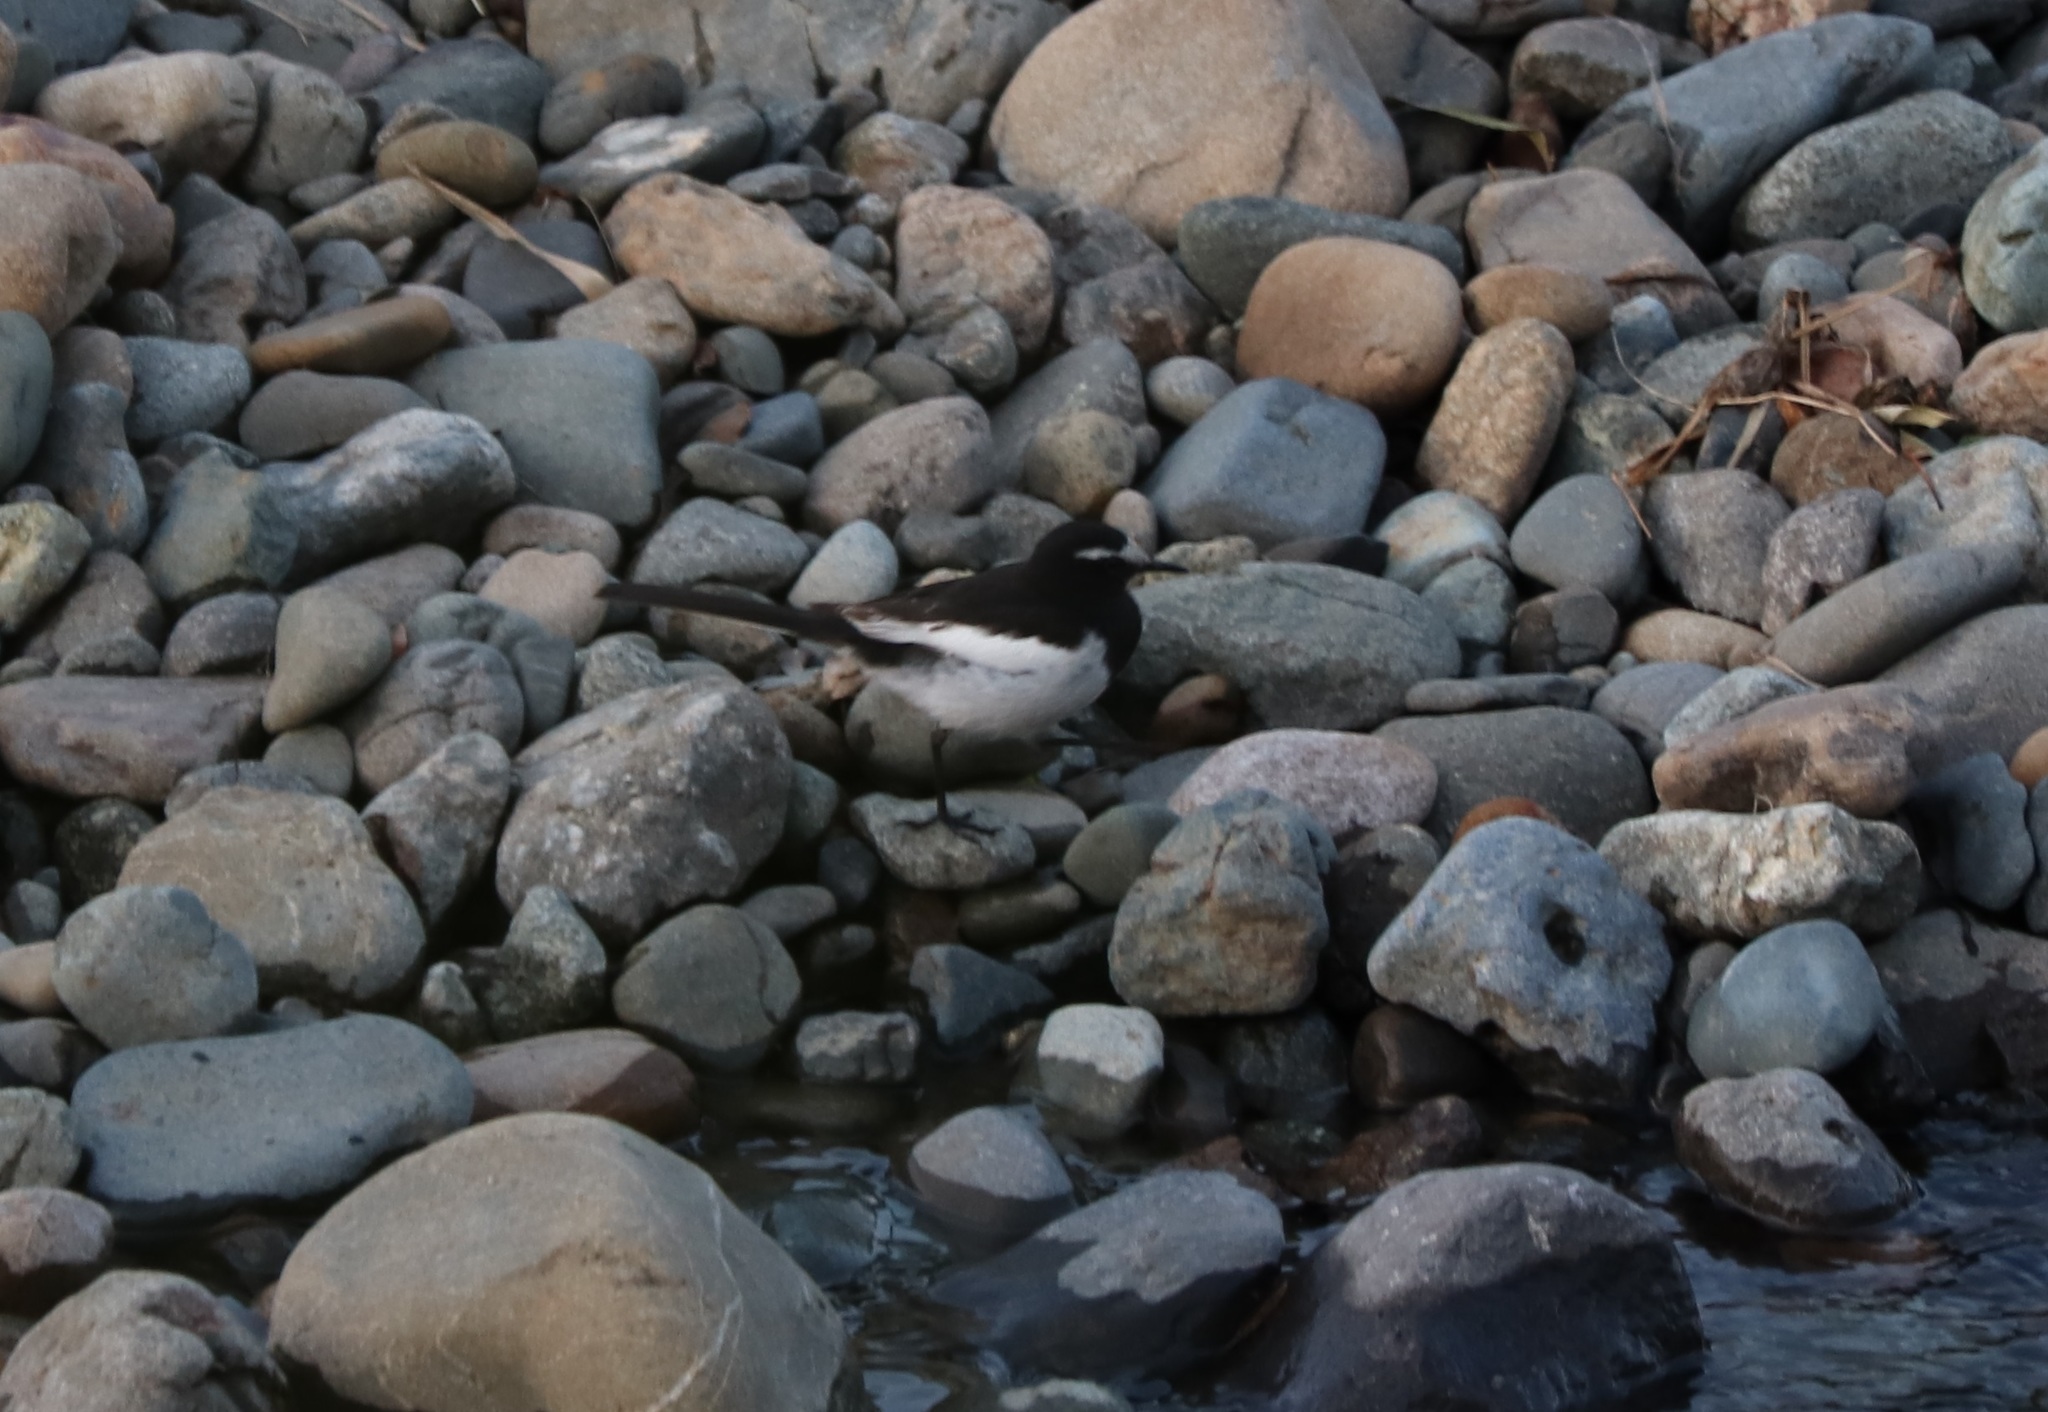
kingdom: Animalia
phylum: Chordata
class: Aves
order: Passeriformes
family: Motacillidae
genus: Motacilla
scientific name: Motacilla grandis
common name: Japanese wagtail
